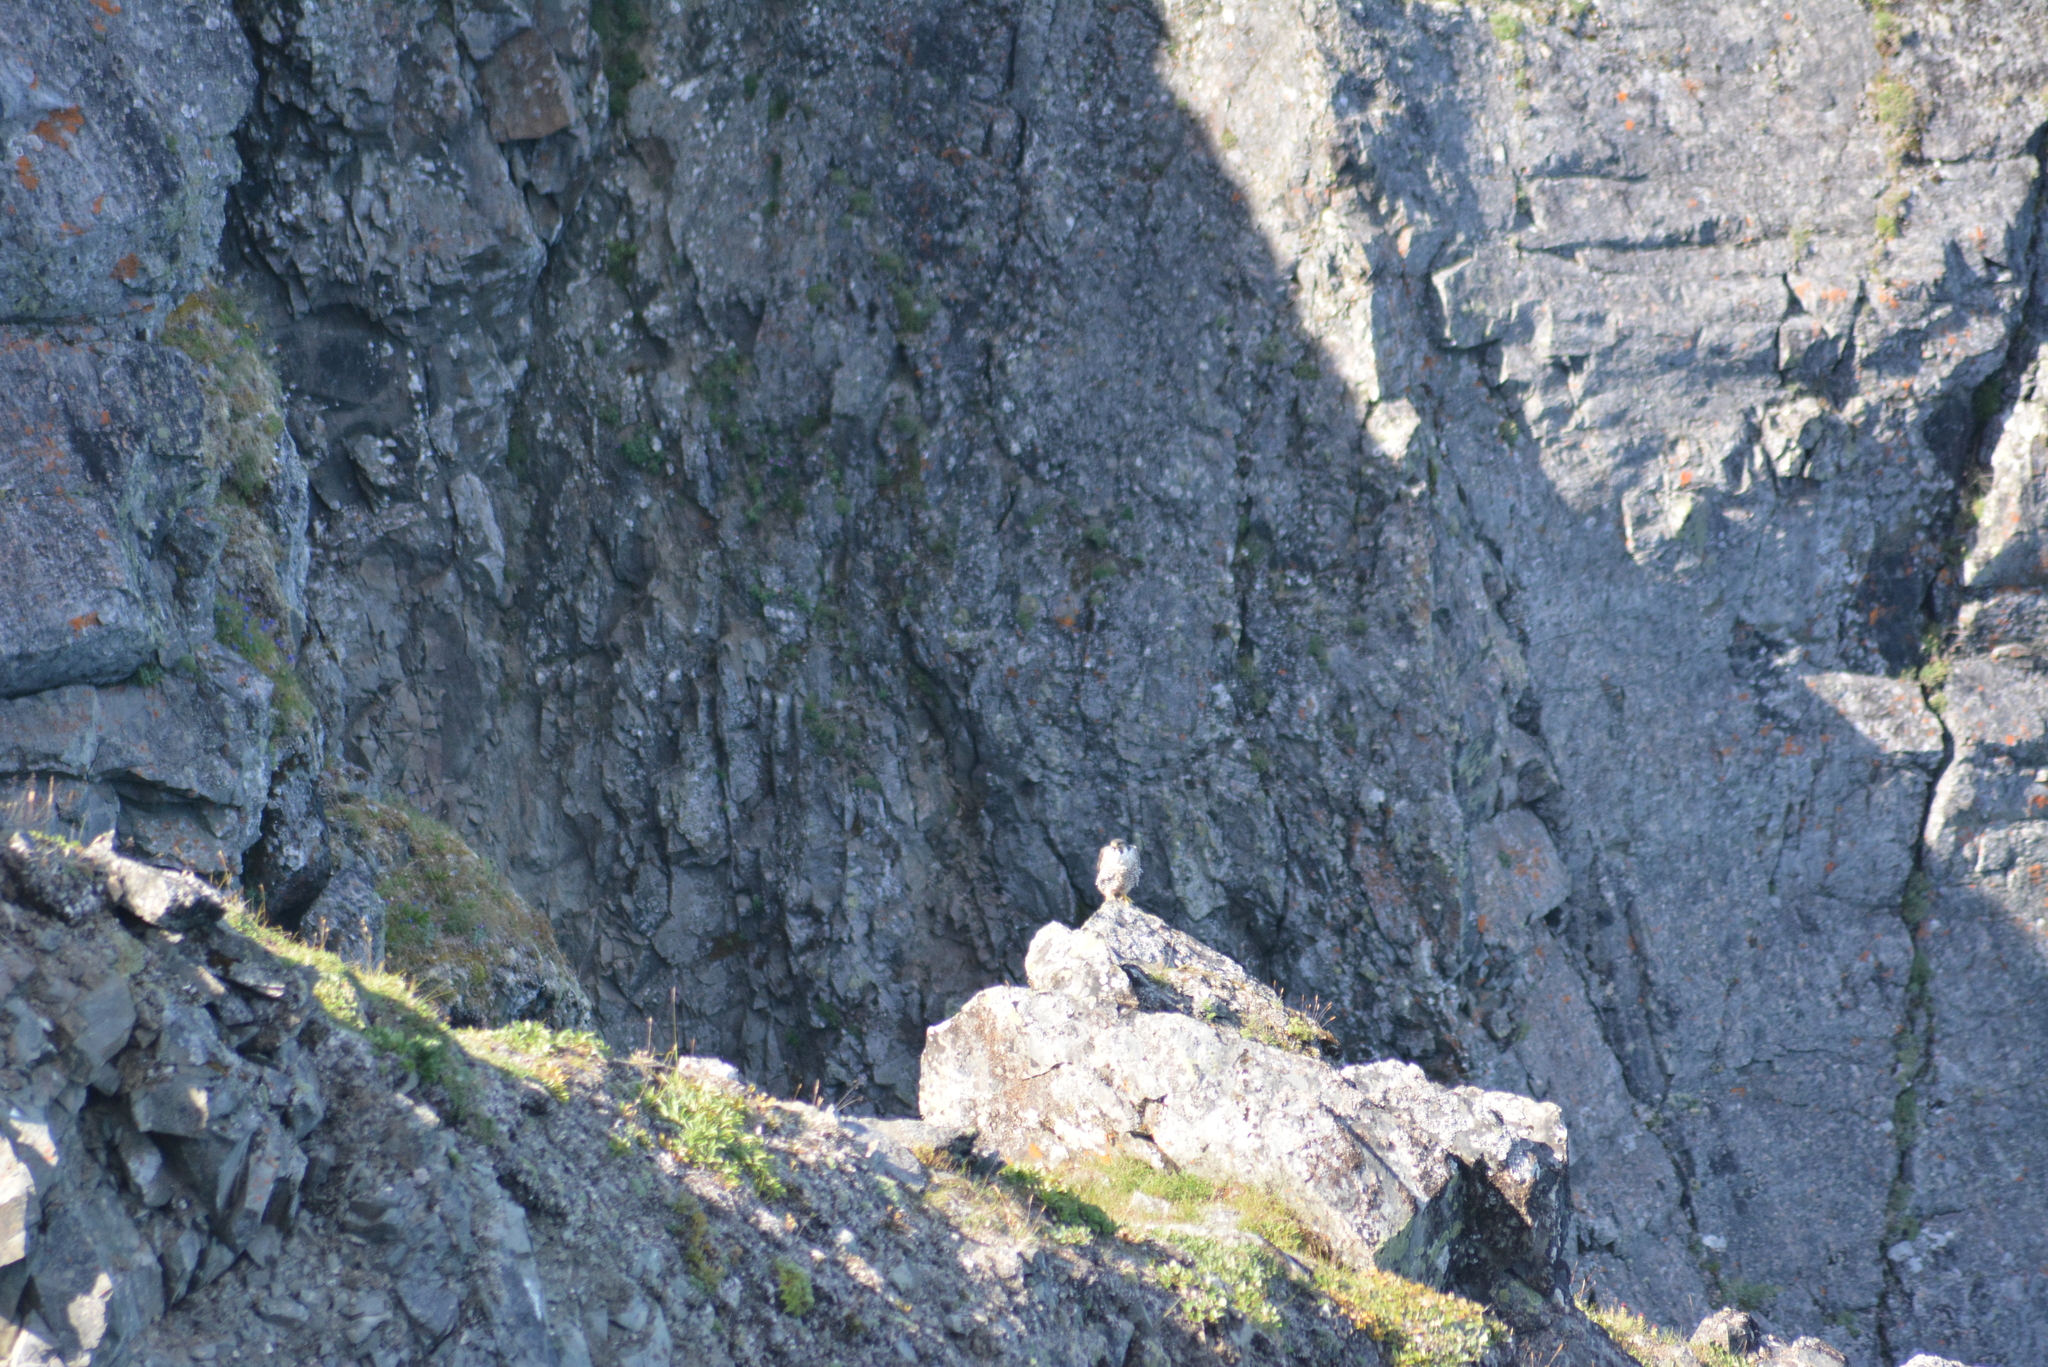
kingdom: Animalia
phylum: Chordata
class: Aves
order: Falconiformes
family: Falconidae
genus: Falco
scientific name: Falco peregrinus
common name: Peregrine falcon
